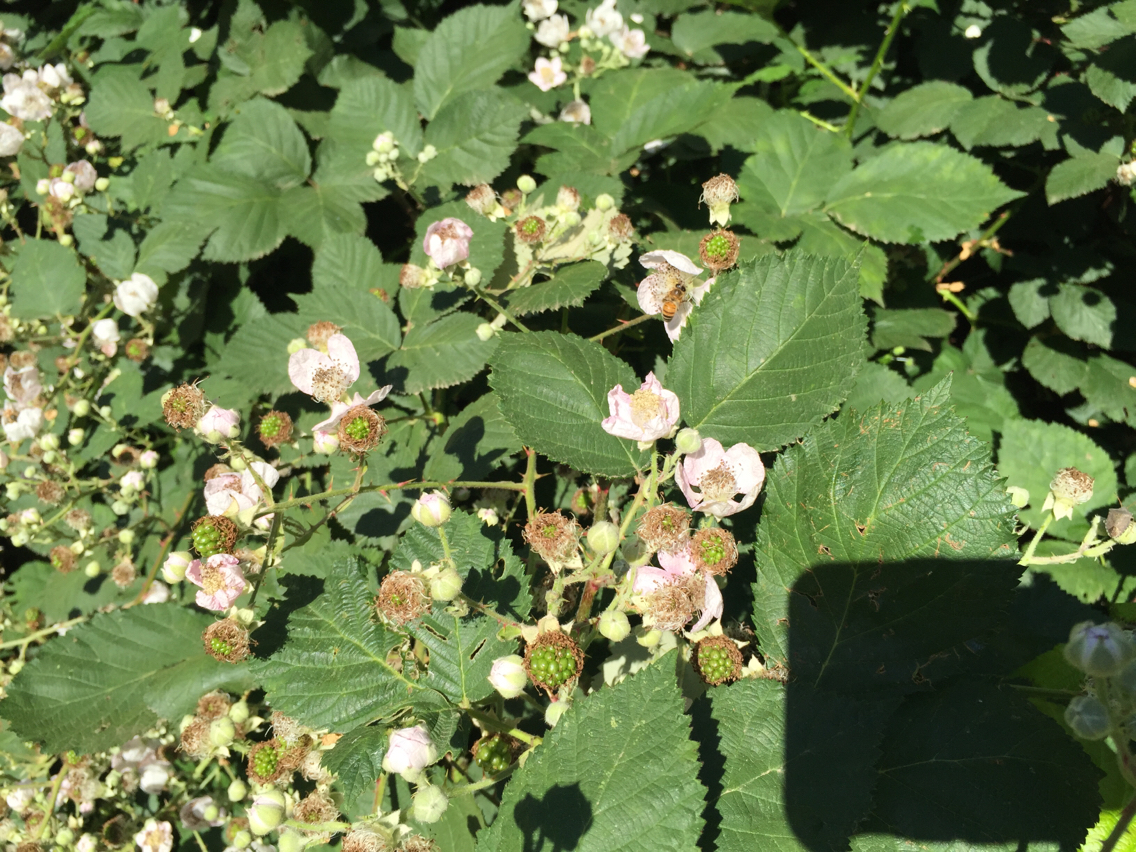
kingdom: Plantae
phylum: Tracheophyta
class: Magnoliopsida
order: Rosales
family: Rosaceae
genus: Rubus
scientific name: Rubus armeniacus
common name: Himalayan blackberry
